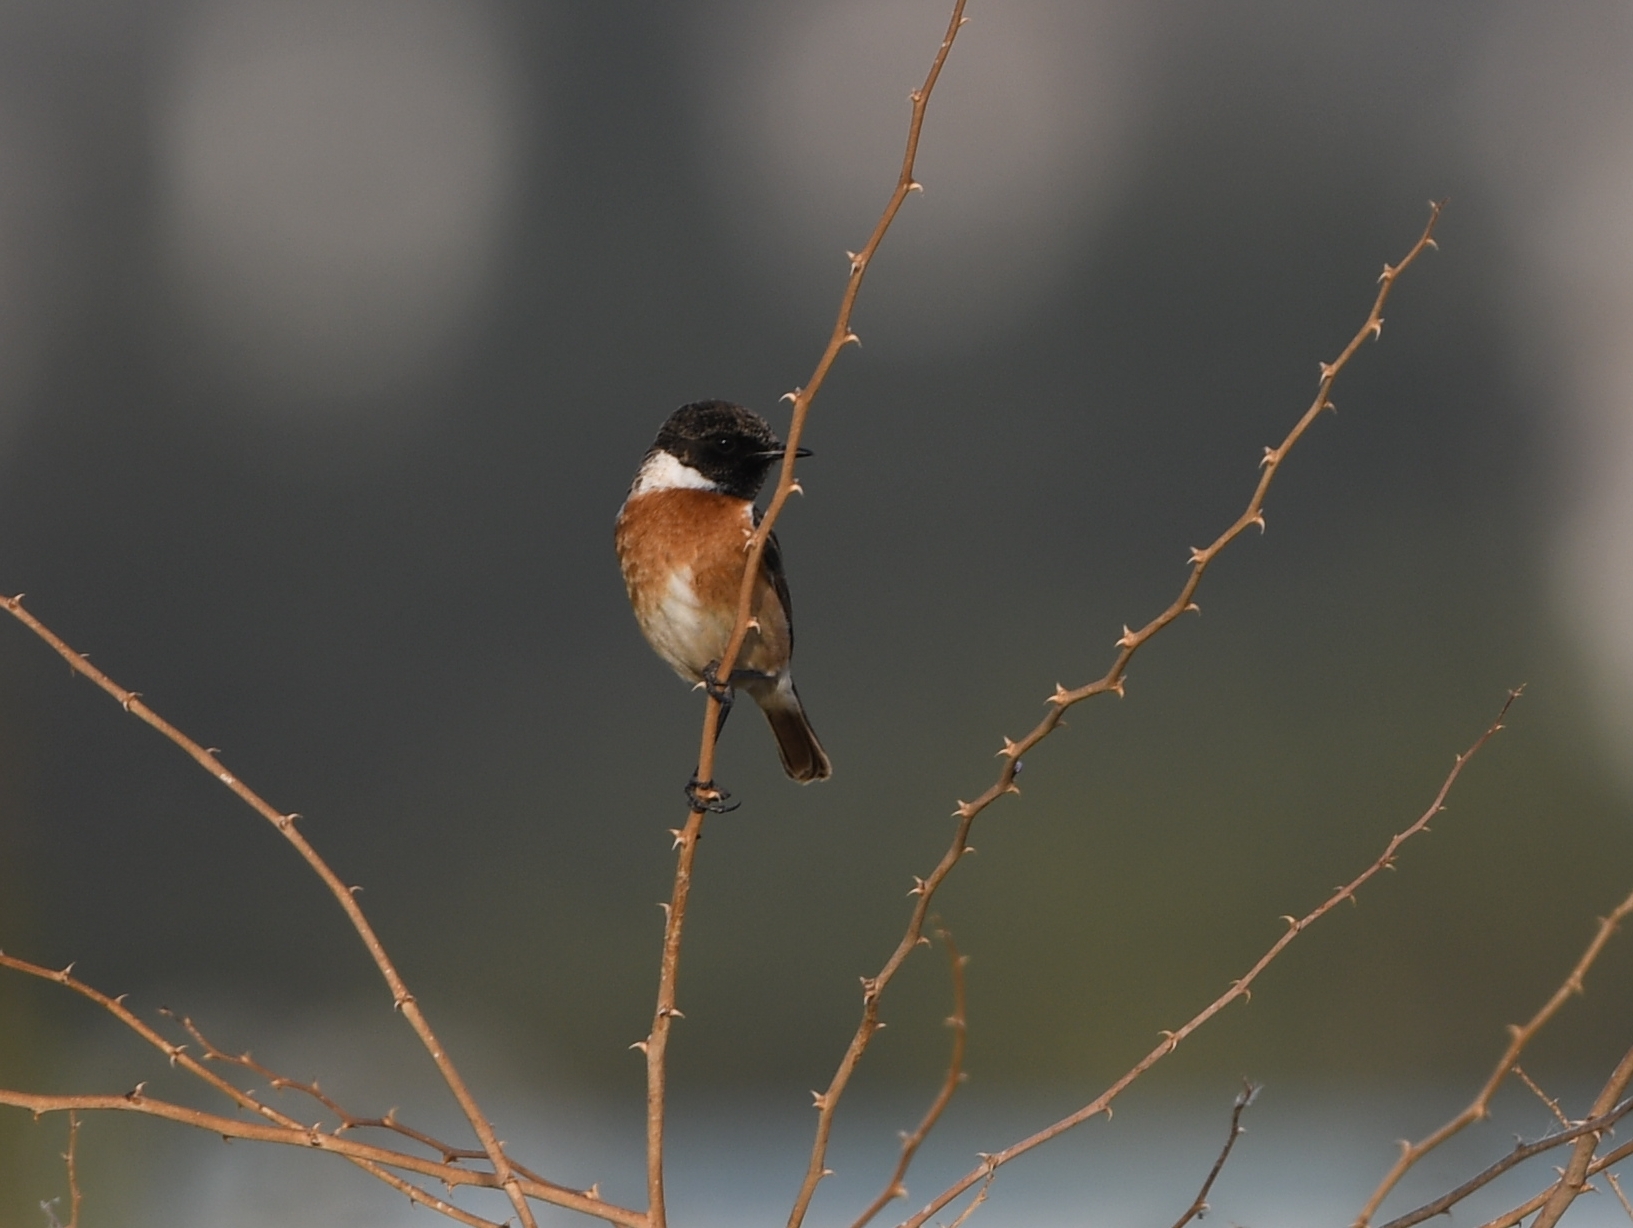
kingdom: Animalia
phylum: Chordata
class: Aves
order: Passeriformes
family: Muscicapidae
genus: Saxicola
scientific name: Saxicola rubicola
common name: European stonechat
